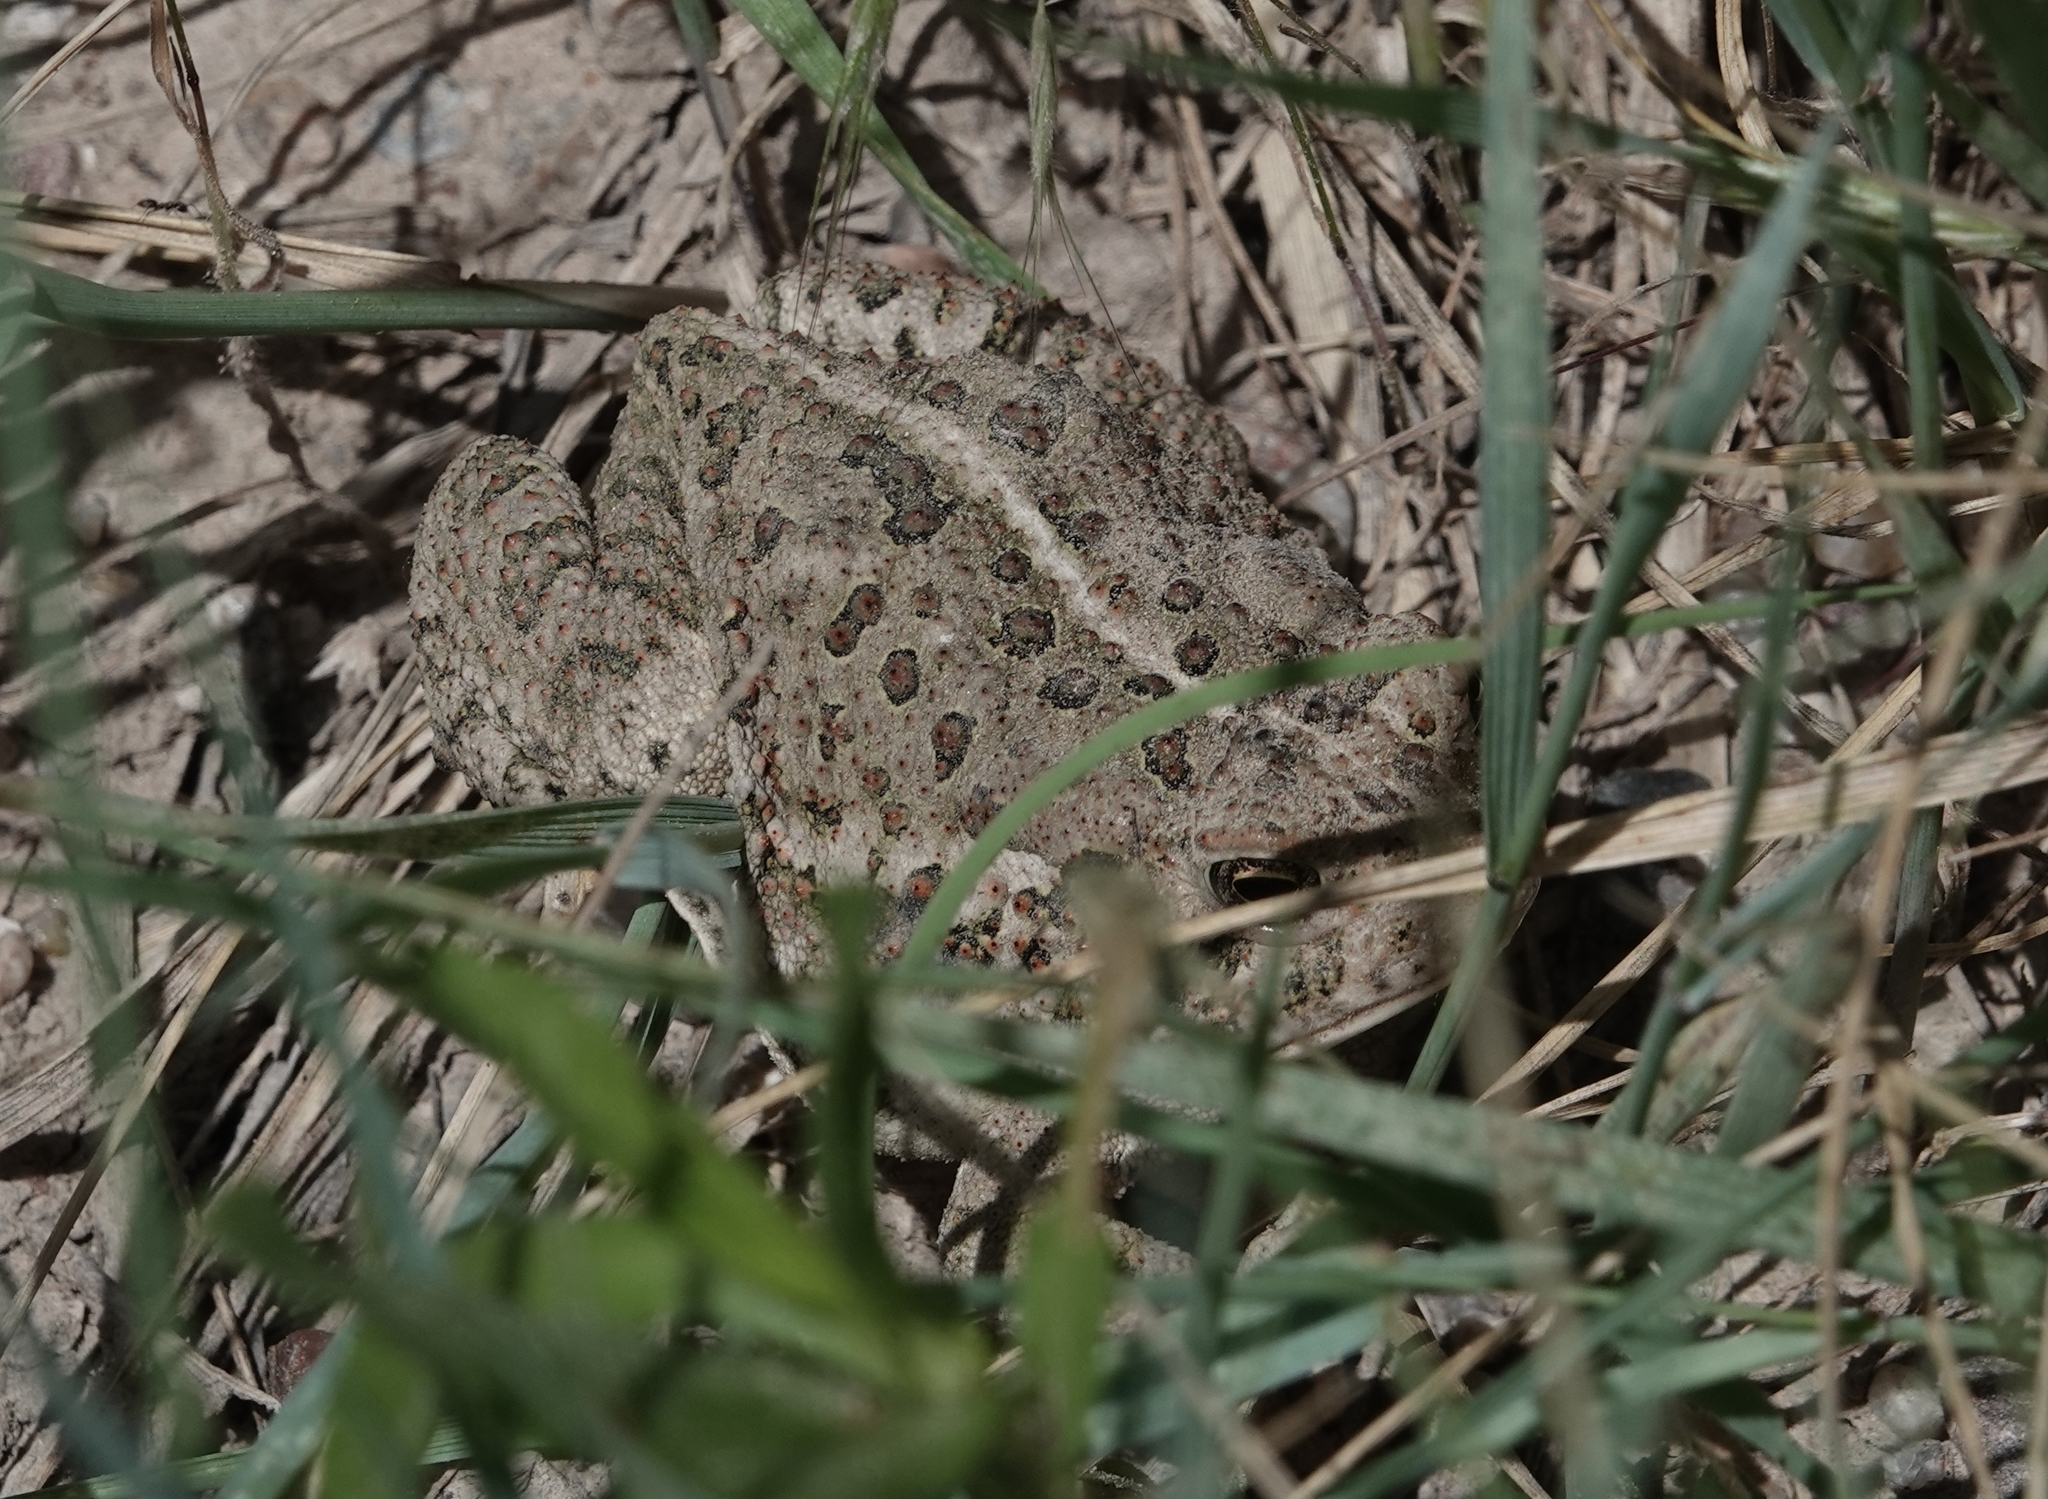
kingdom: Animalia
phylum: Chordata
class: Amphibia
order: Anura
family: Bufonidae
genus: Anaxyrus
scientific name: Anaxyrus woodhousii
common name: Woodhouse's toad
